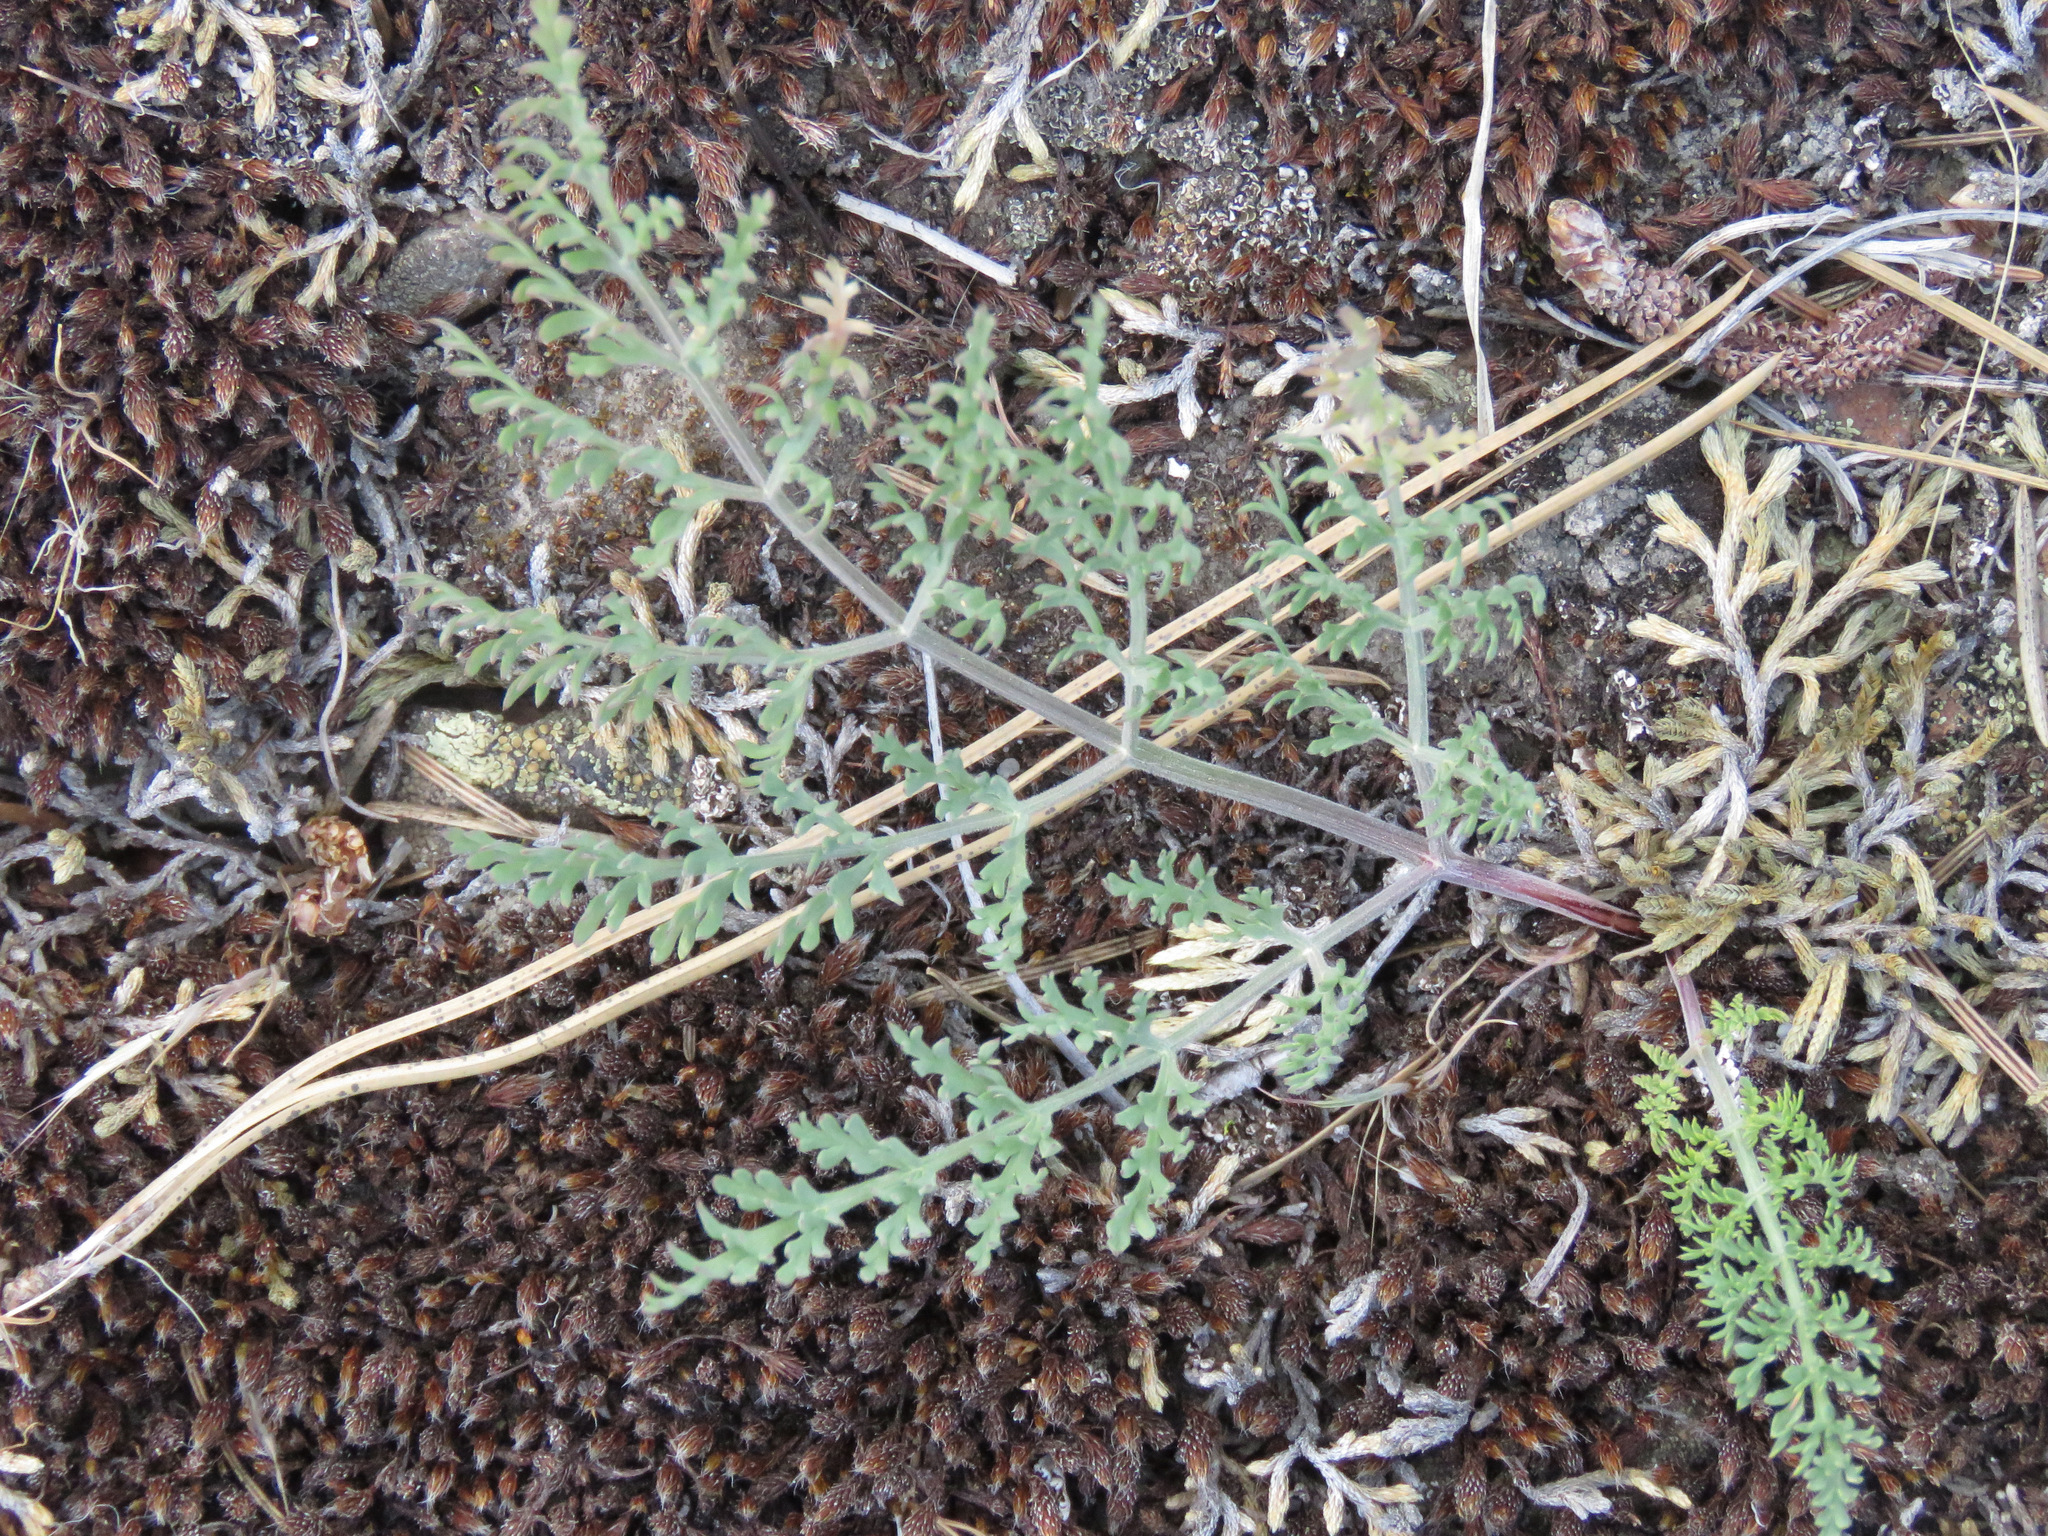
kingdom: Plantae
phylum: Tracheophyta
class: Magnoliopsida
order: Apiales
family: Apiaceae
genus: Lomatium
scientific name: Lomatium macrocarpum
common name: Big-seed biscuitroot
